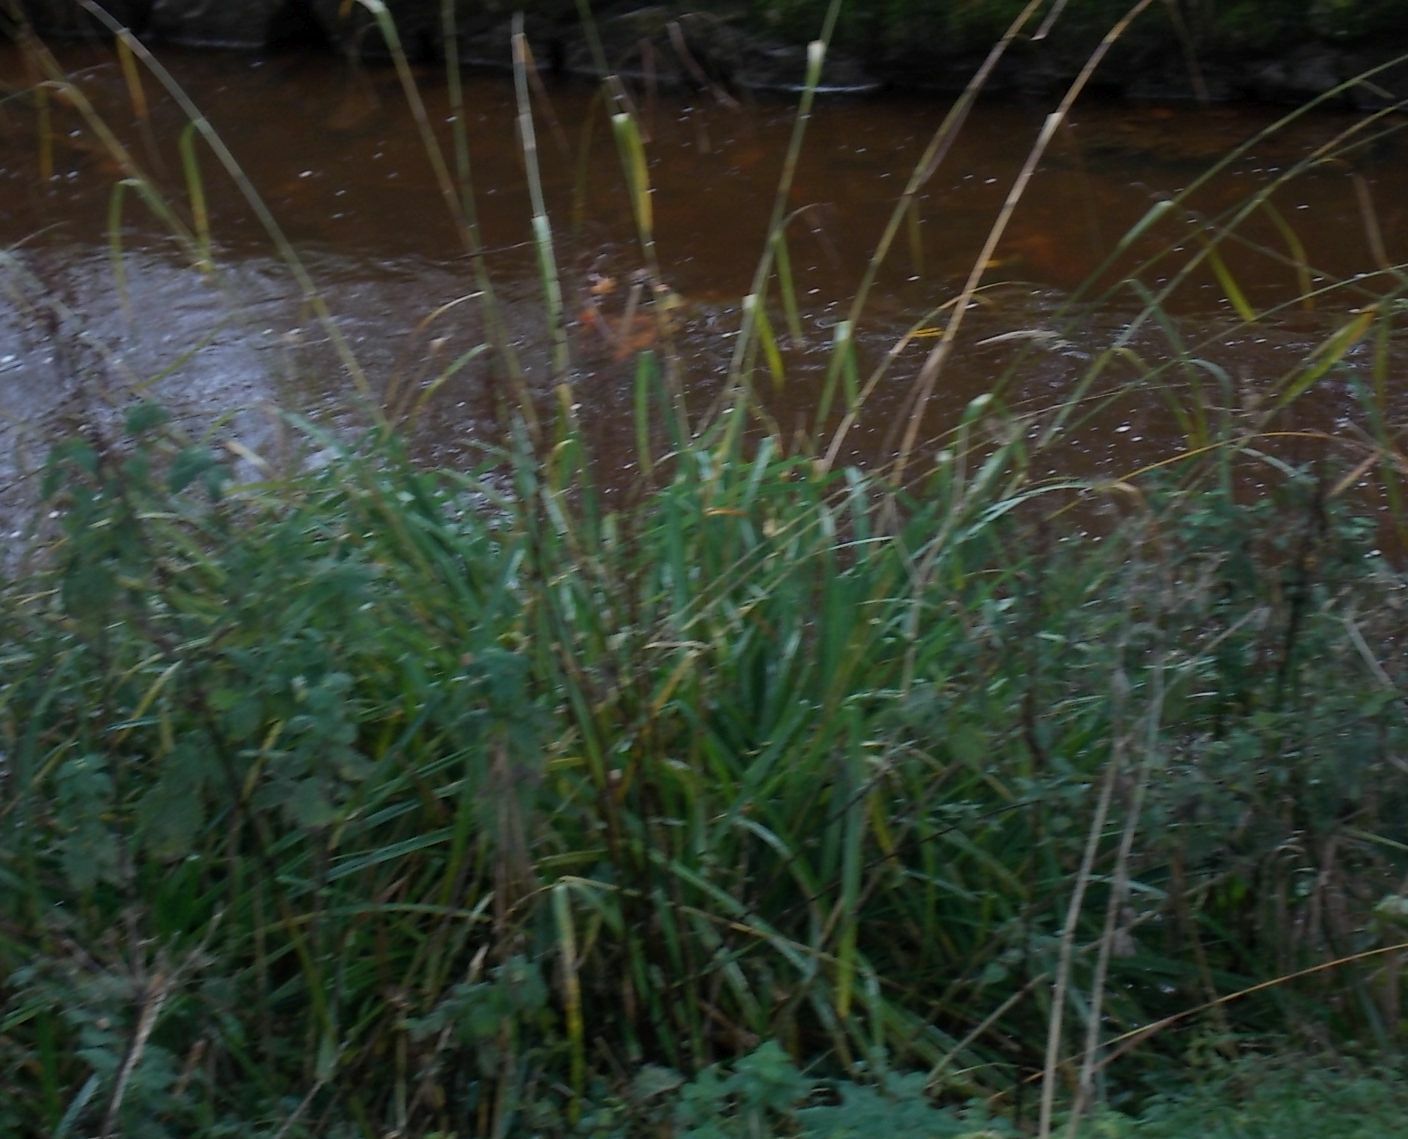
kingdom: Plantae
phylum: Tracheophyta
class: Liliopsida
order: Poales
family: Cyperaceae
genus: Carex
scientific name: Carex pendula
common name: Pendulous sedge
